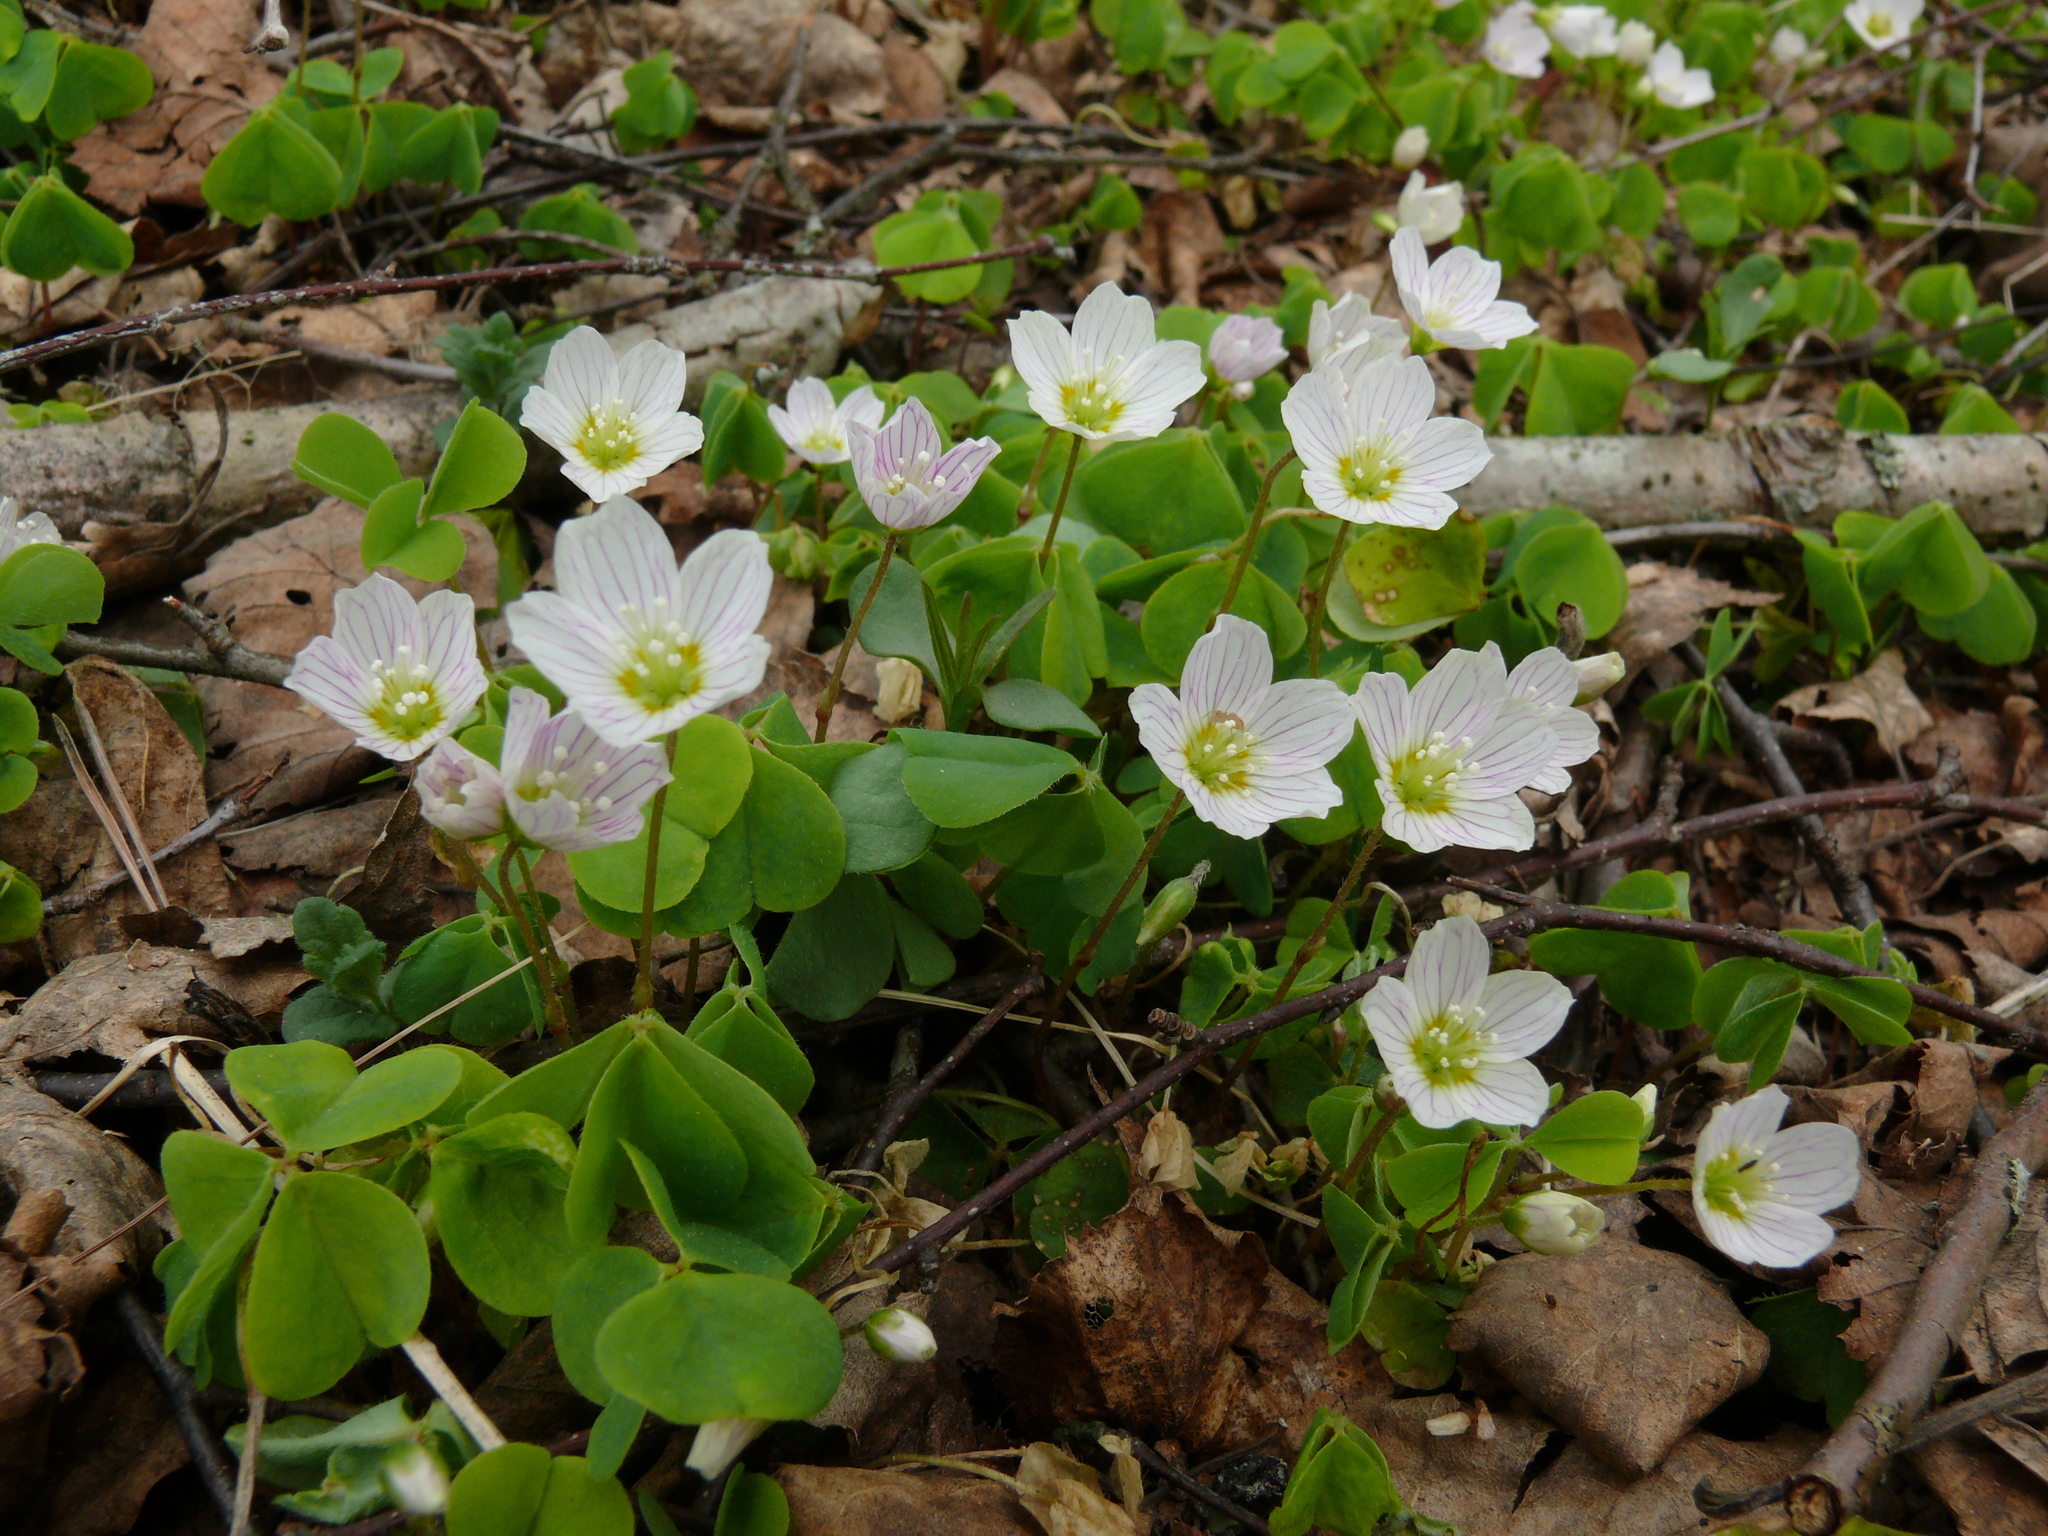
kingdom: Plantae
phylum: Tracheophyta
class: Magnoliopsida
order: Oxalidales
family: Oxalidaceae
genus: Oxalis
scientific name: Oxalis acetosella
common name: Wood-sorrel
